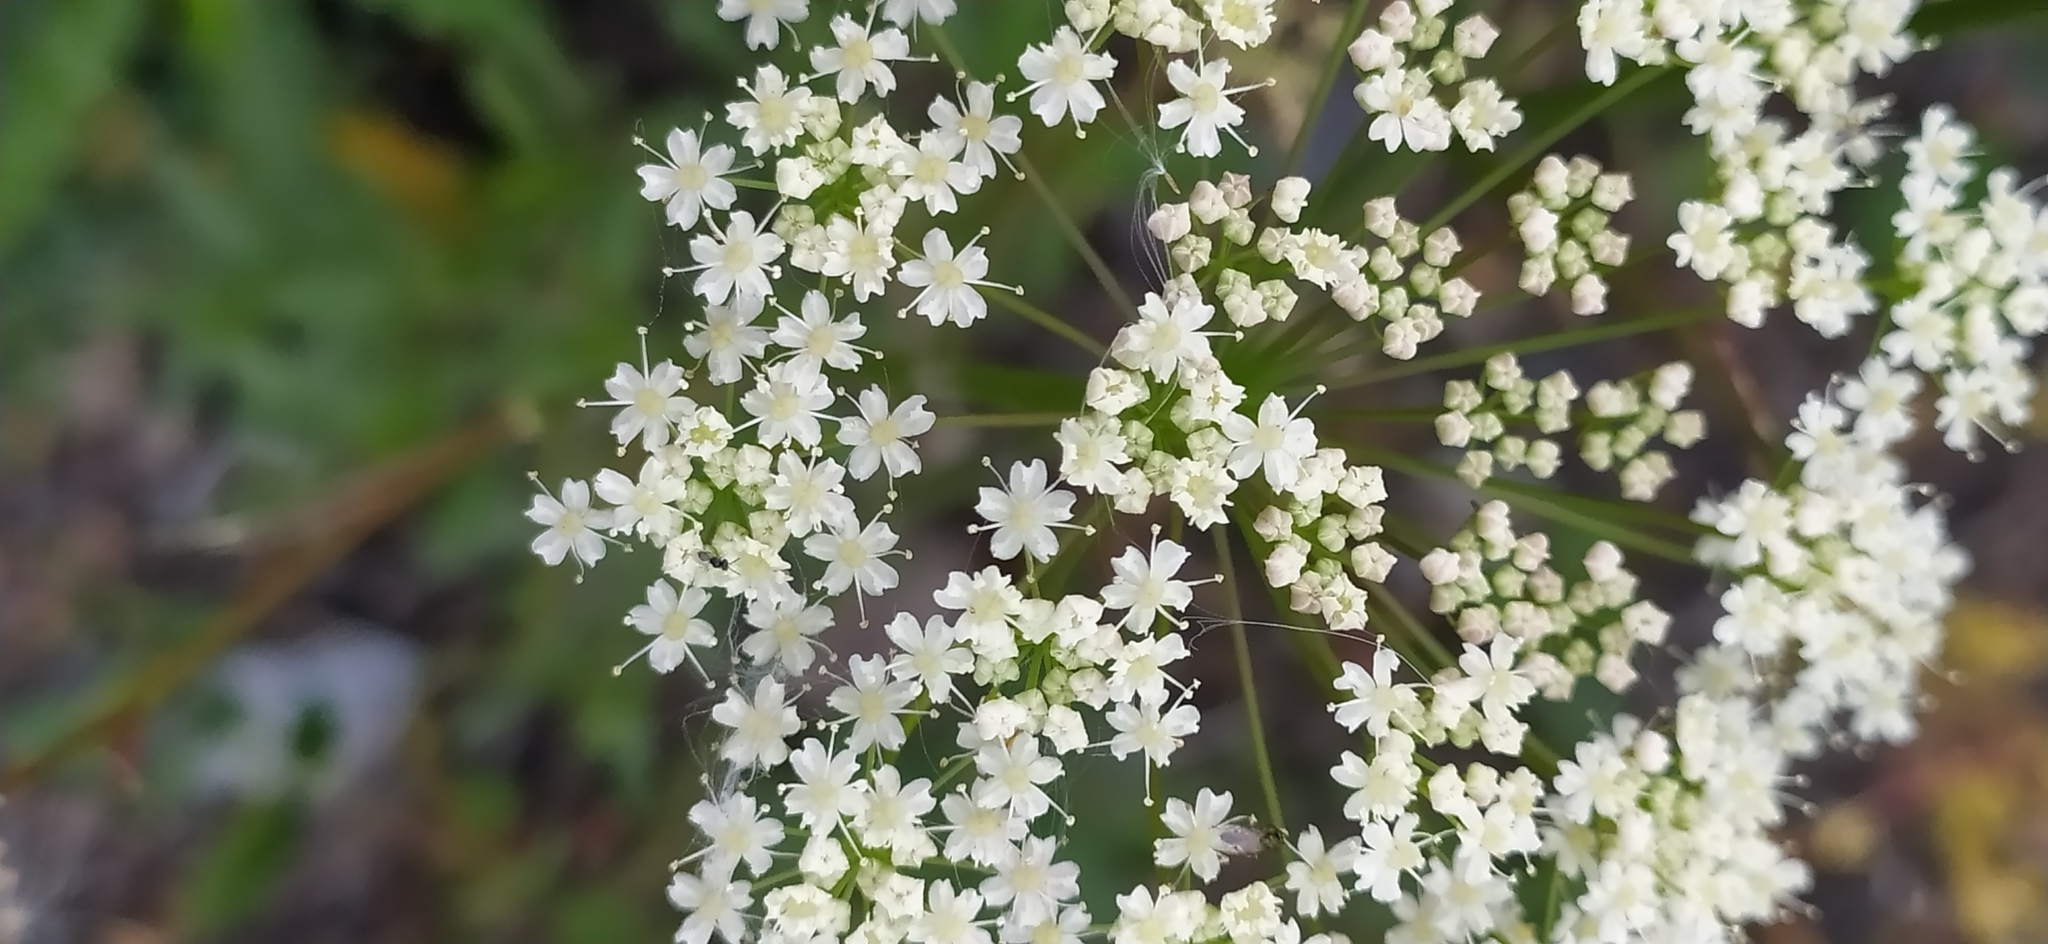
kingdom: Plantae
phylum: Tracheophyta
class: Magnoliopsida
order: Apiales
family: Apiaceae
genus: Pimpinella
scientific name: Pimpinella saxifraga
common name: Burnet-saxifrage
